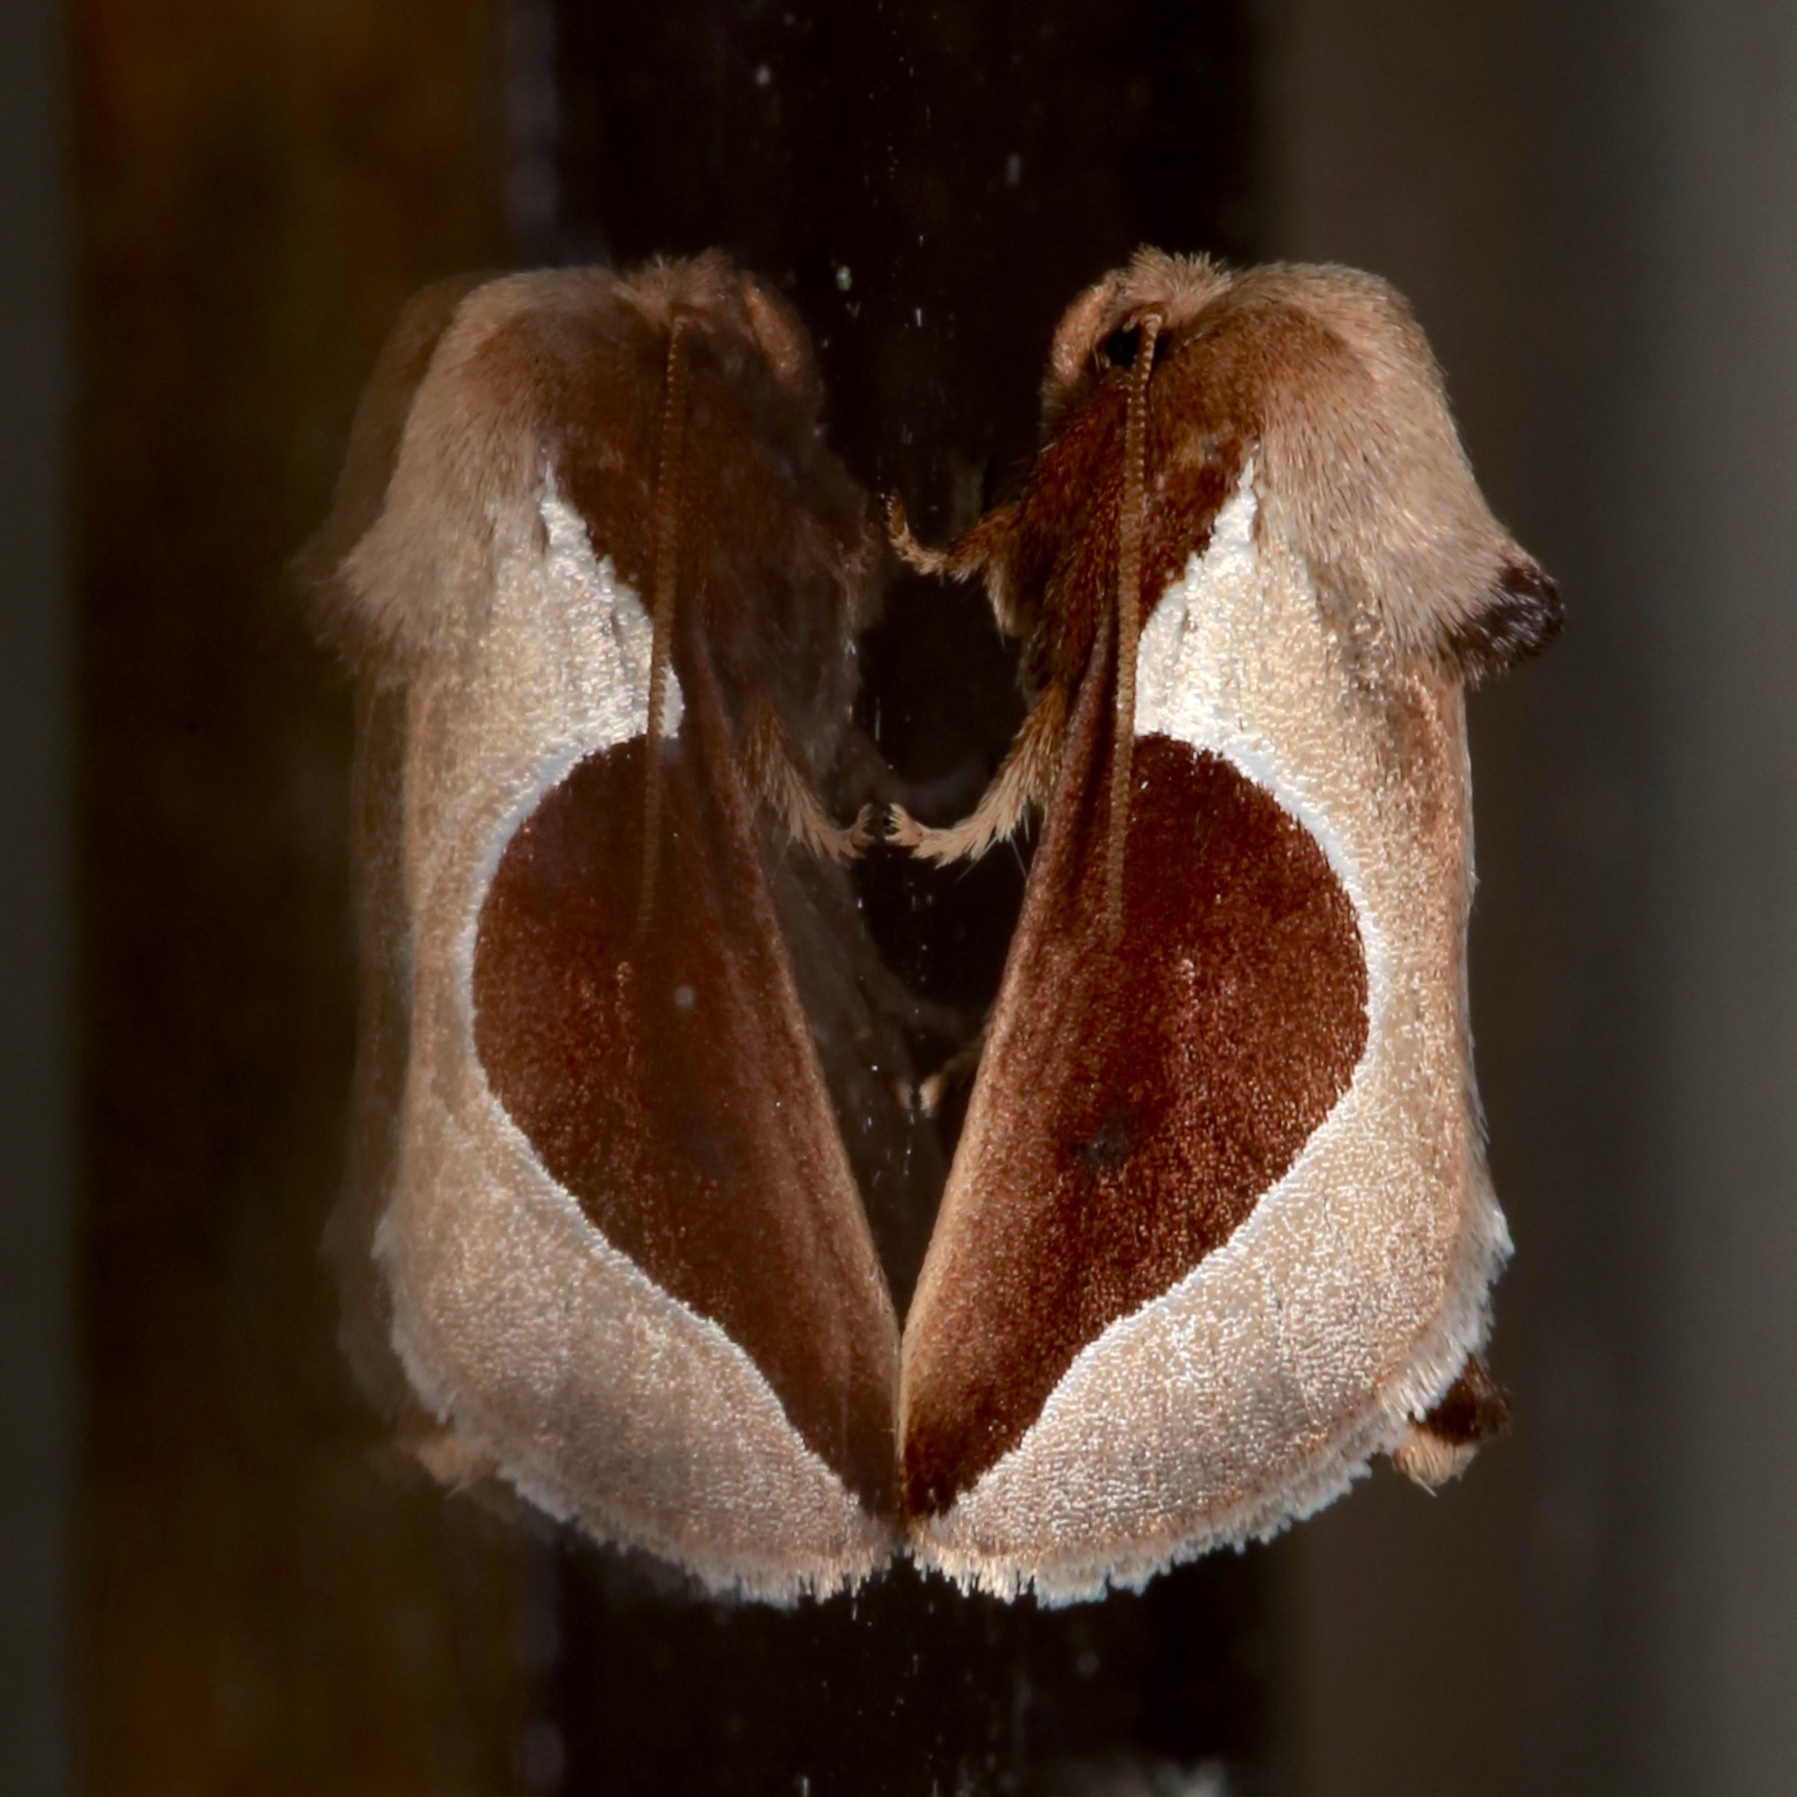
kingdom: Animalia
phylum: Arthropoda
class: Insecta
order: Lepidoptera
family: Limacodidae
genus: Prolimacodes
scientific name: Prolimacodes badia
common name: Skiff moth
